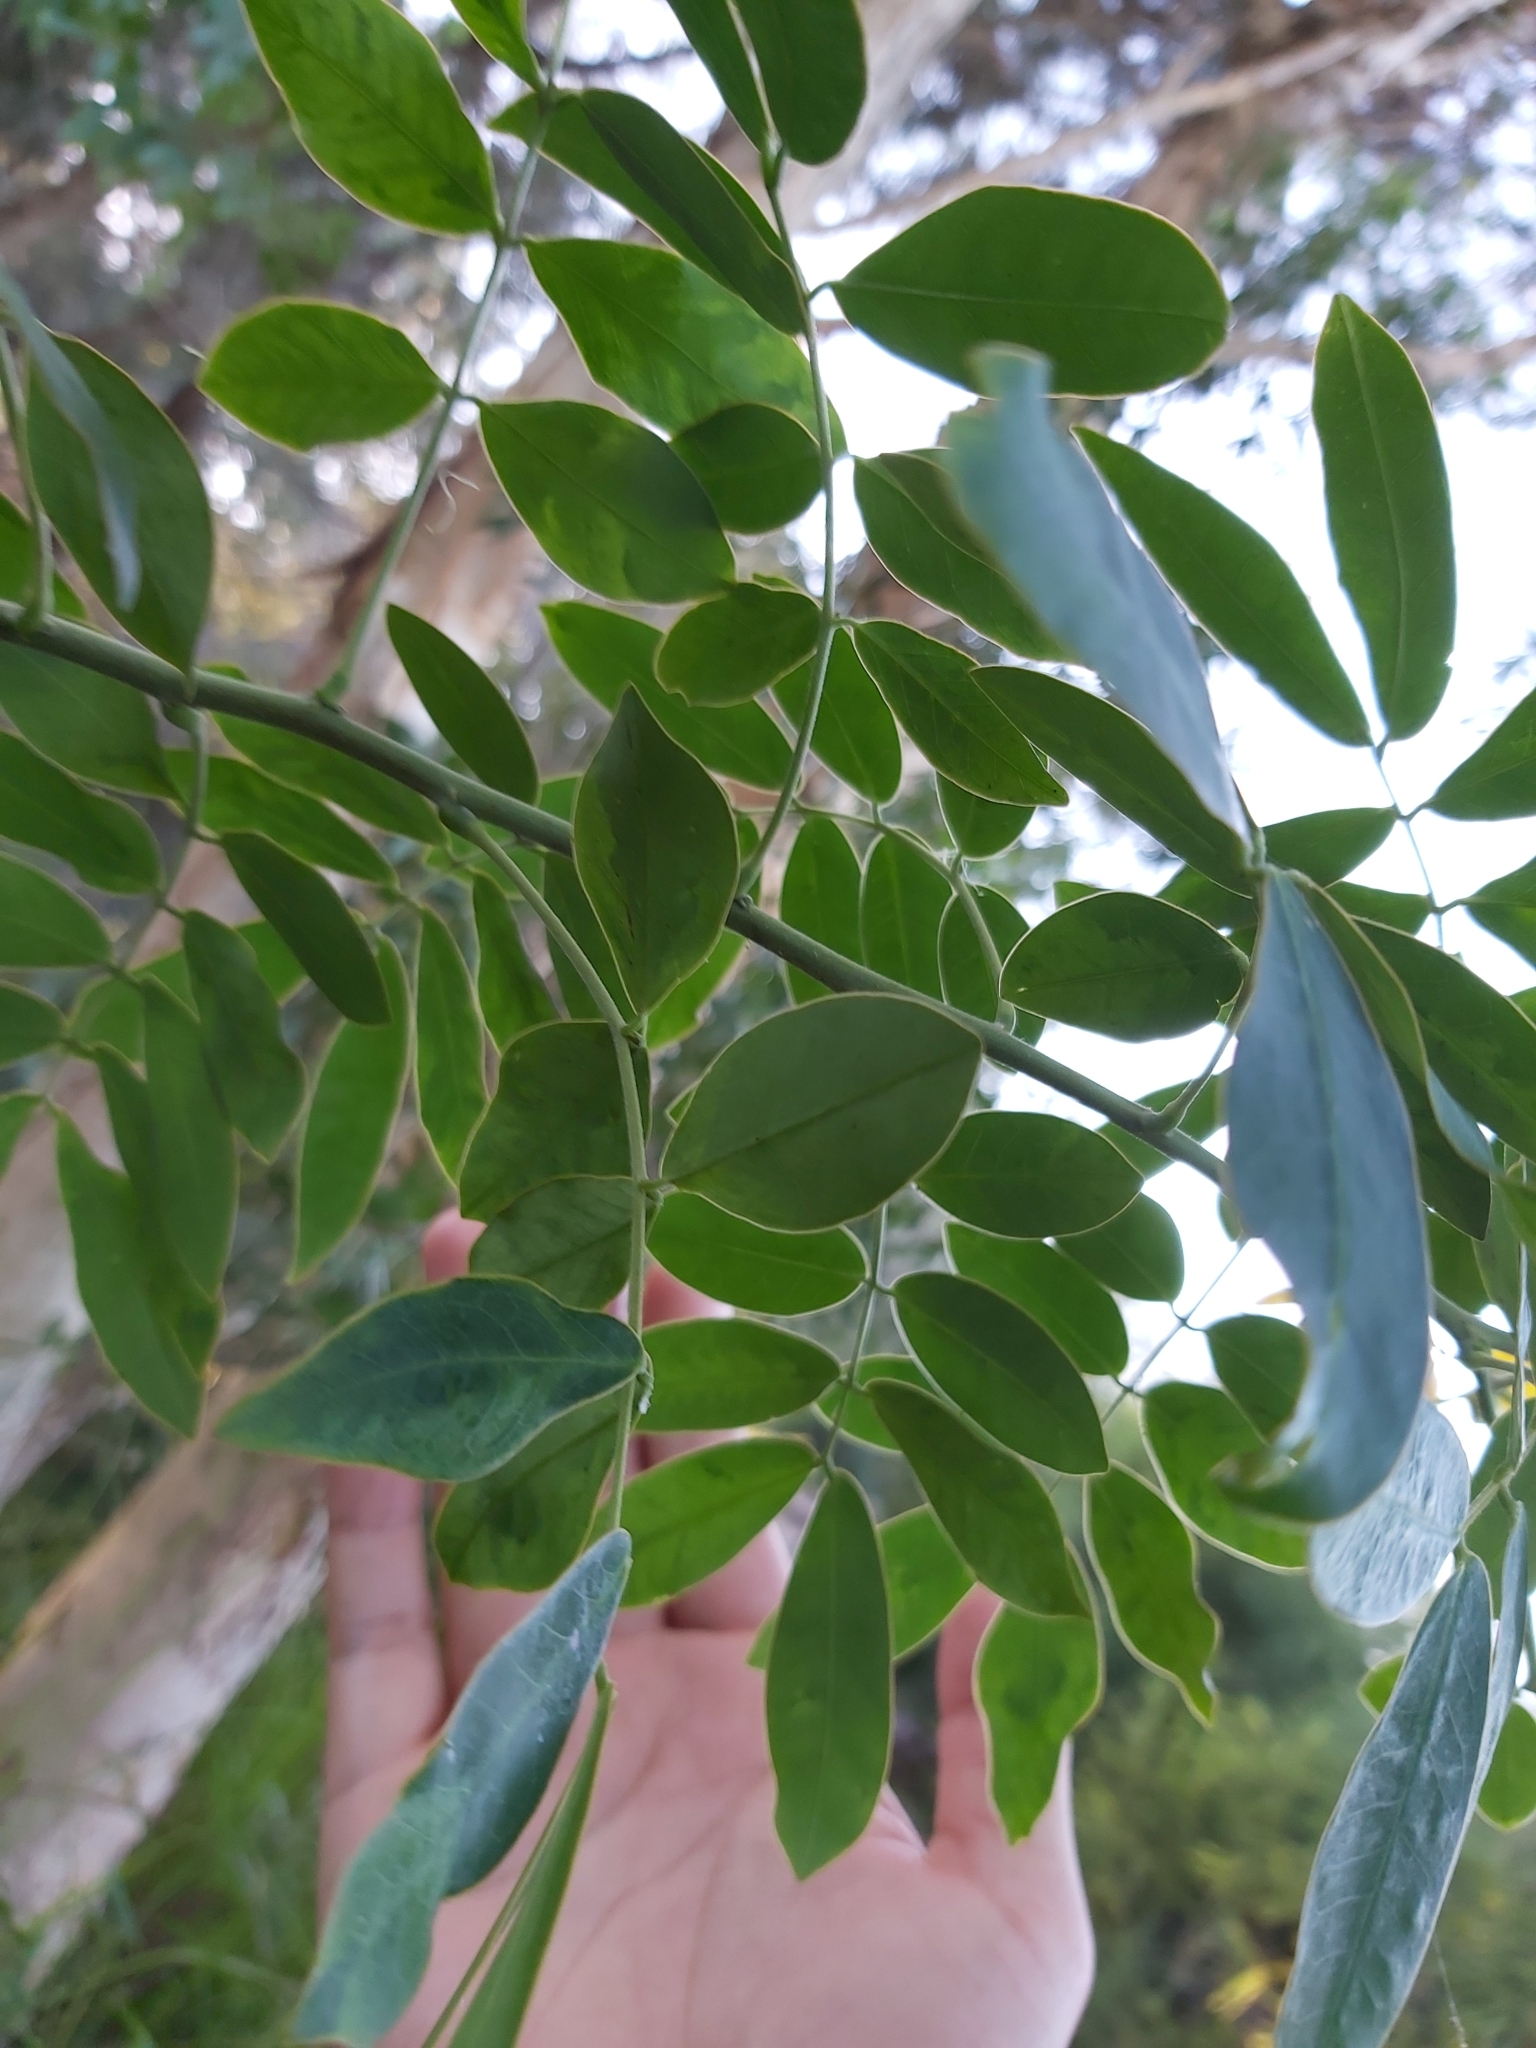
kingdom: Plantae
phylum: Tracheophyta
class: Magnoliopsida
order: Fabales
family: Fabaceae
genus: Senna
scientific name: Senna pendula
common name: Easter cassia
